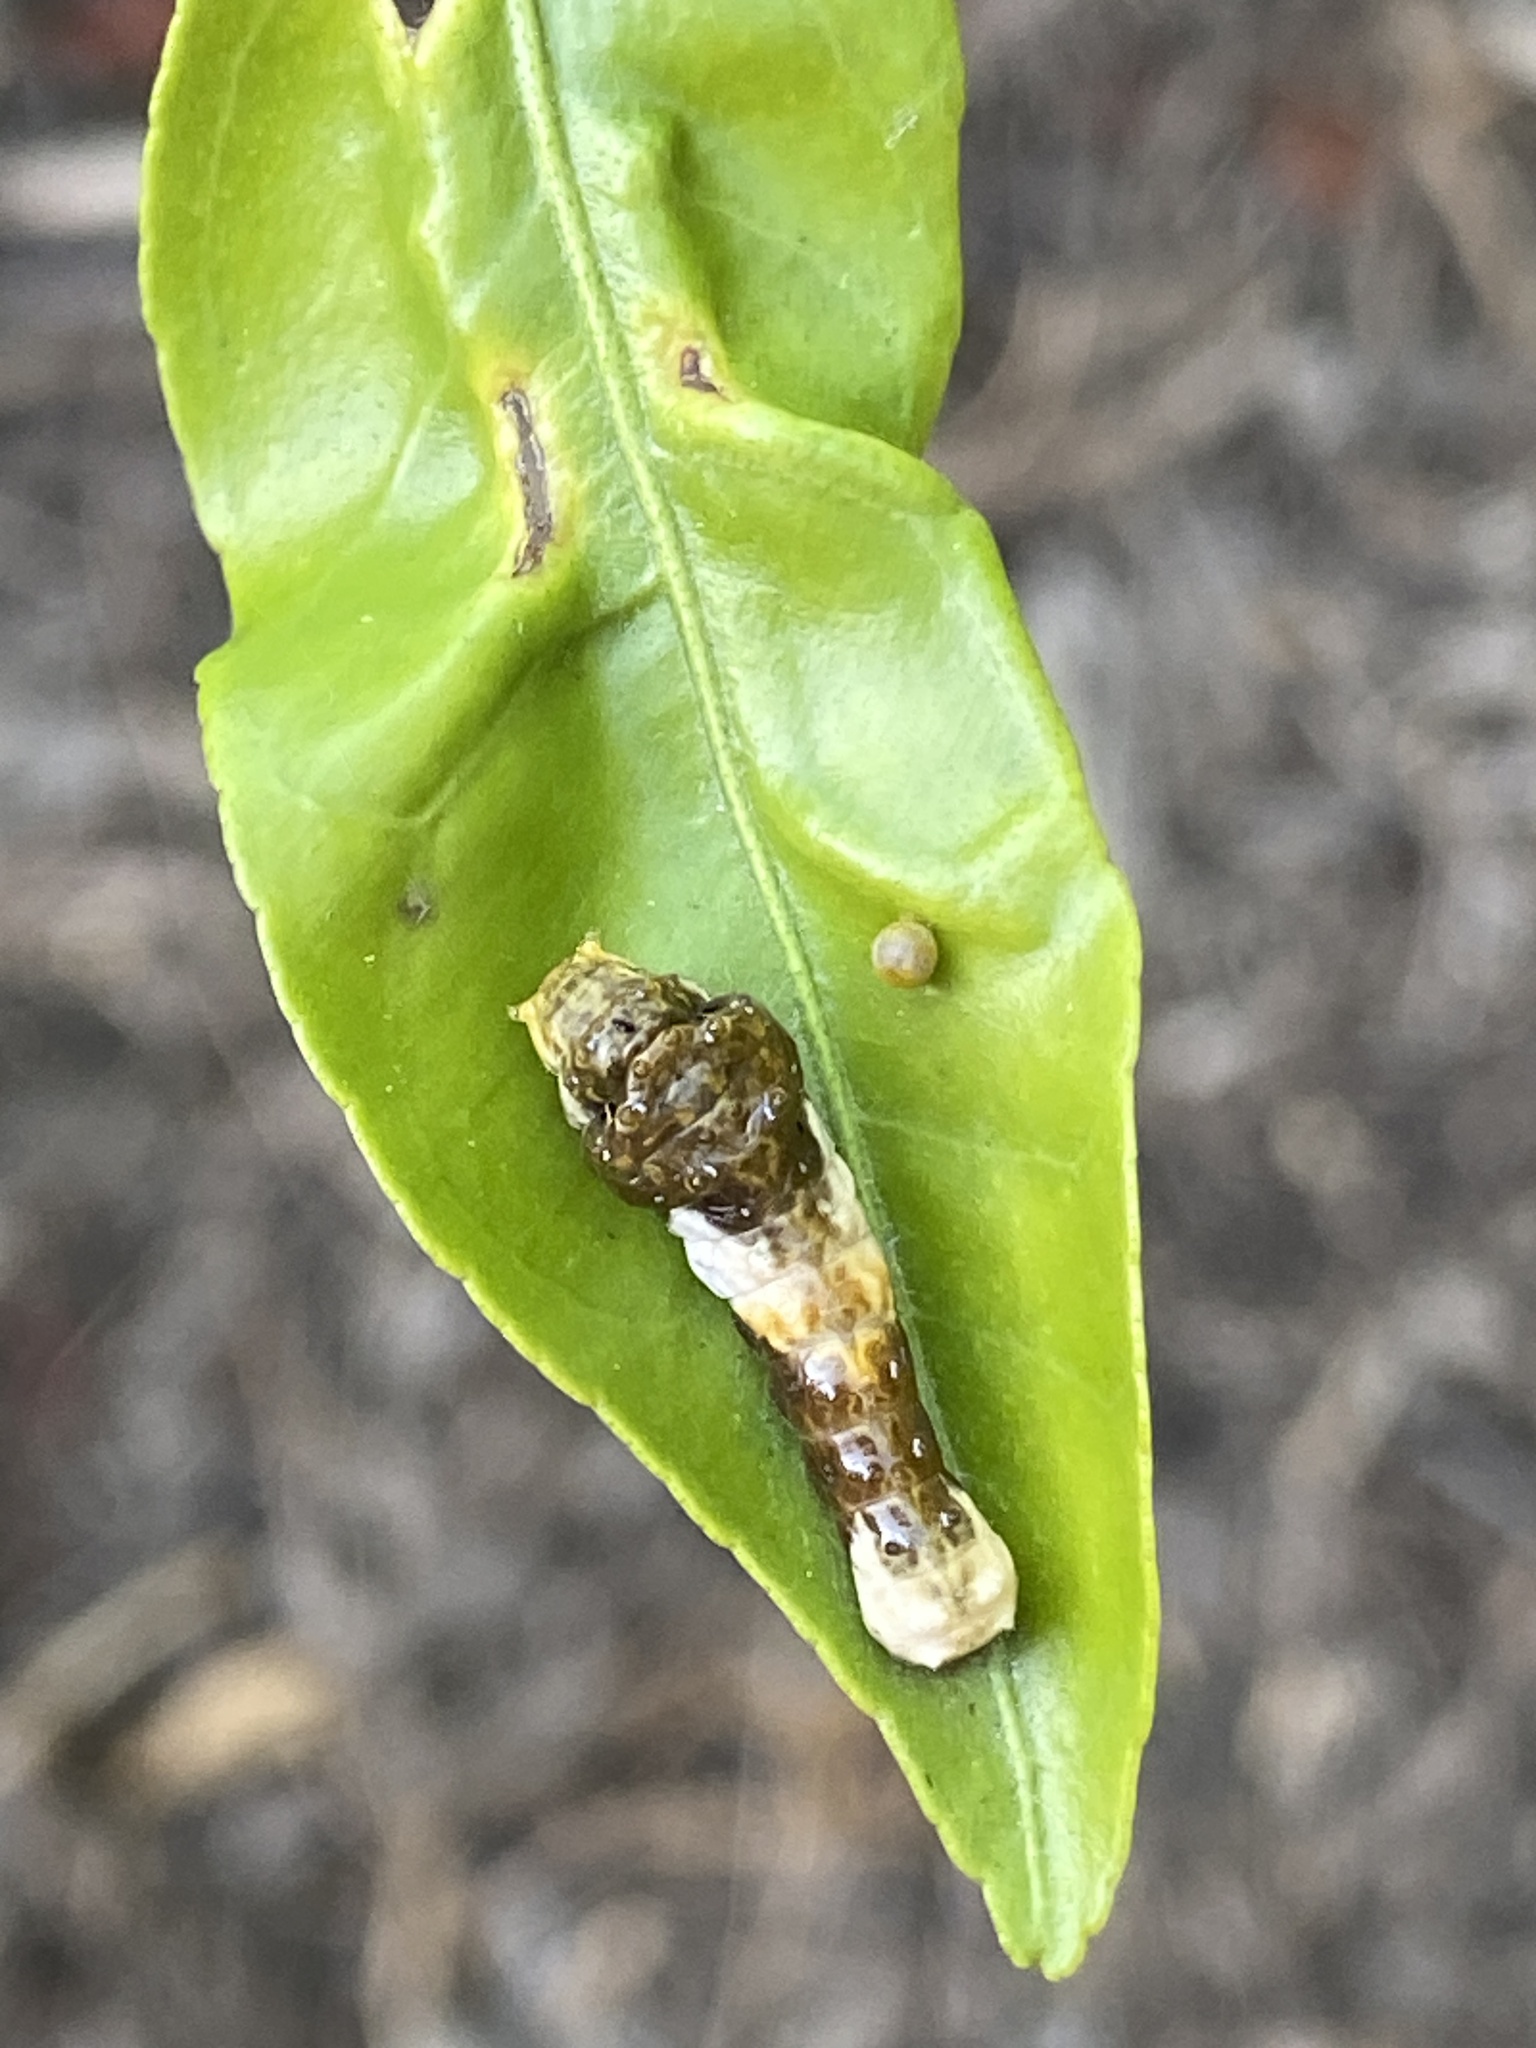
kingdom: Animalia
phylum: Arthropoda
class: Insecta
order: Lepidoptera
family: Papilionidae
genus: Papilio
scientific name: Papilio rumiko
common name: Western giant swallowtail
